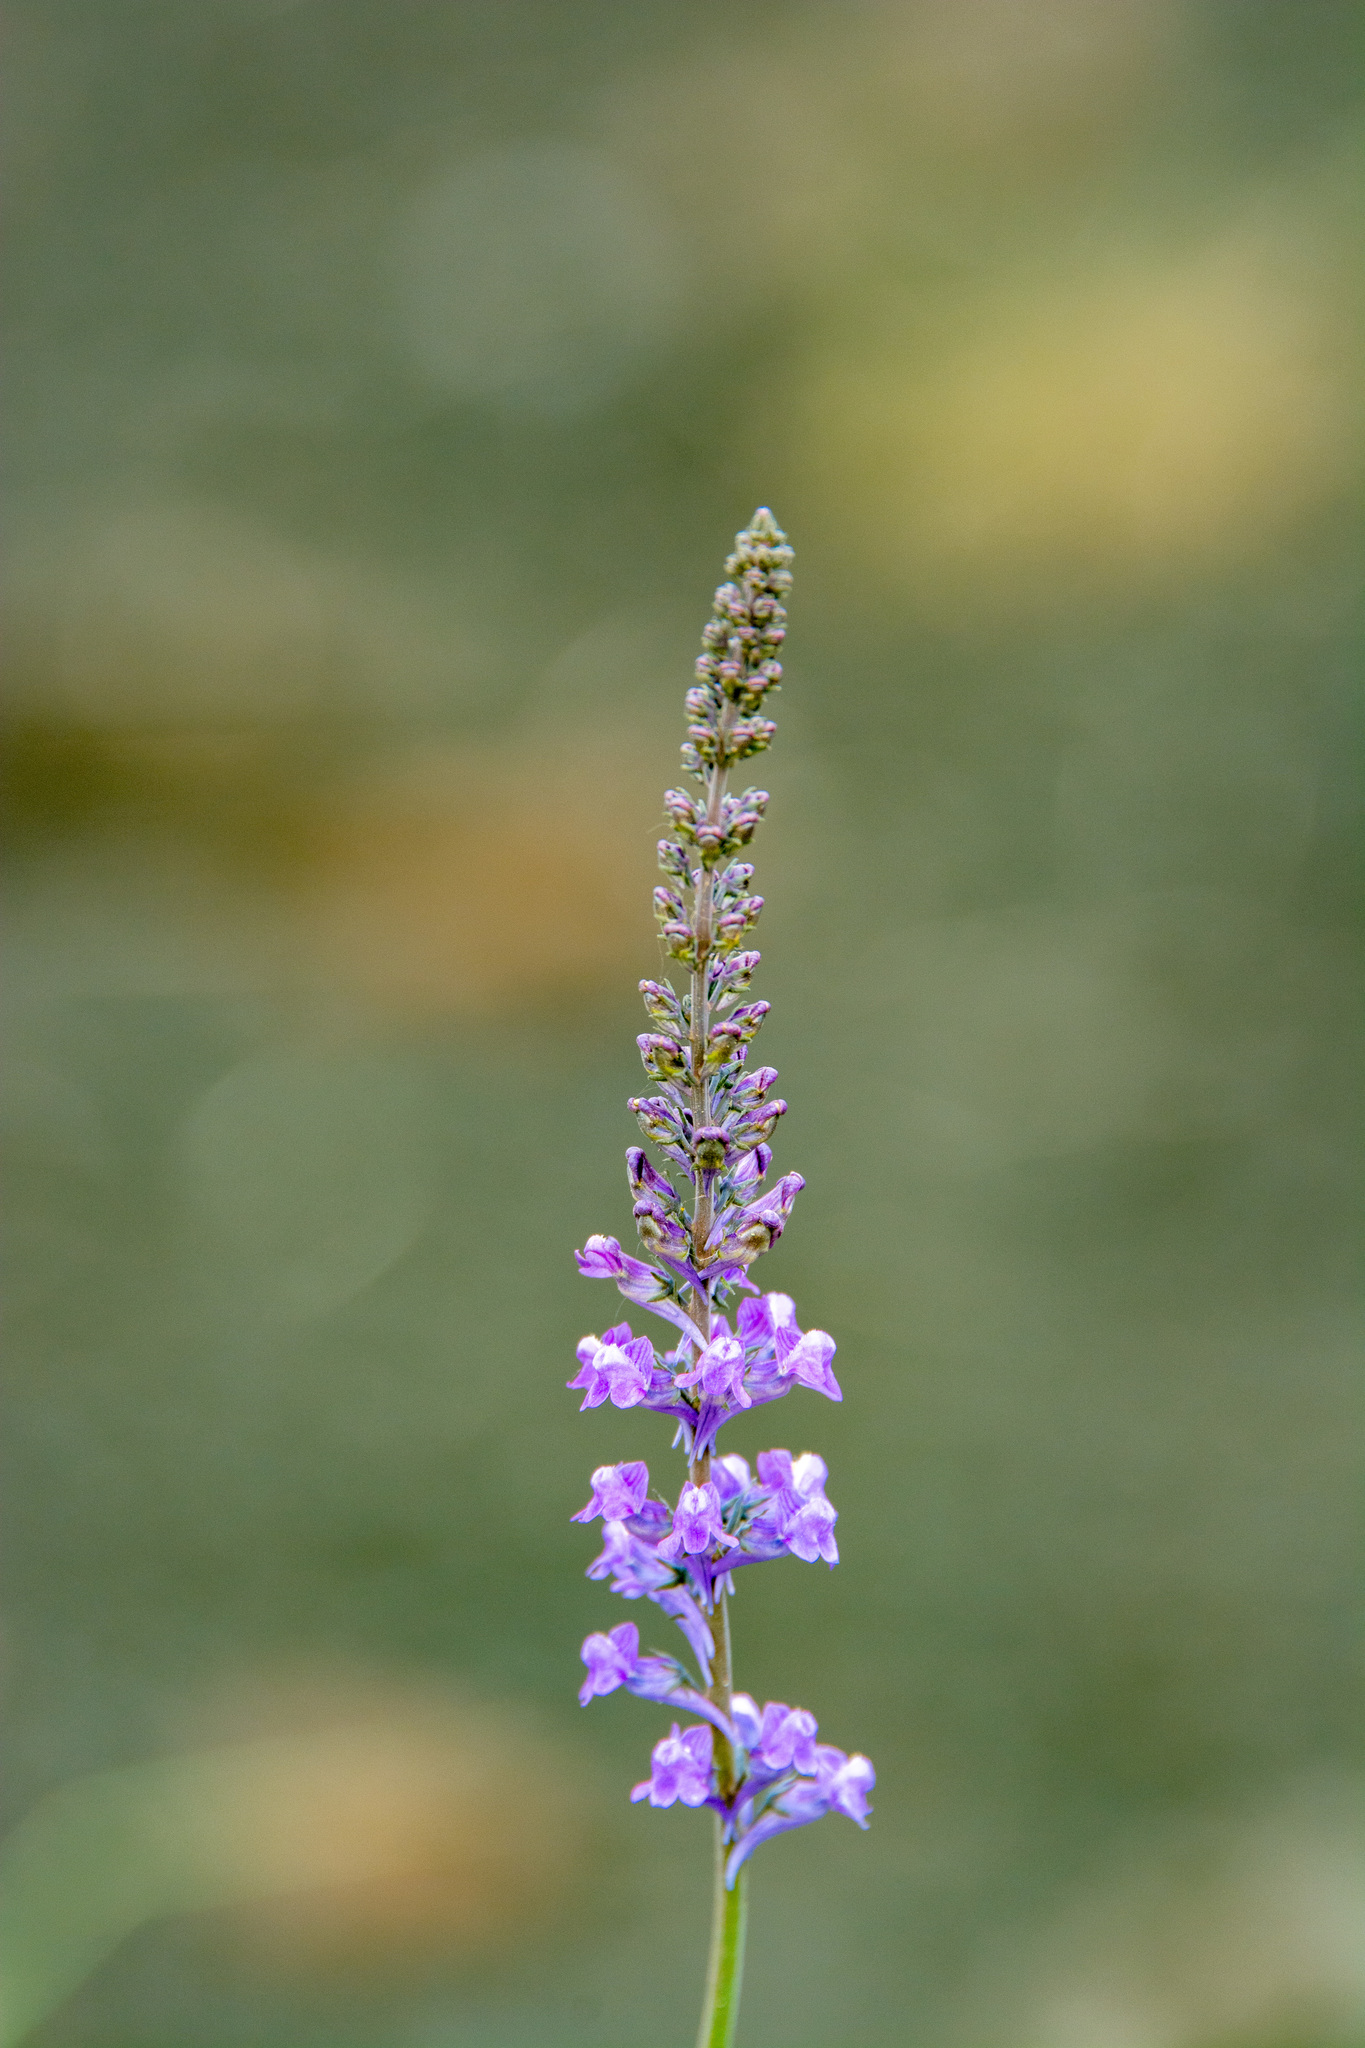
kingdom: Plantae
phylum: Tracheophyta
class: Magnoliopsida
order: Lamiales
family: Plantaginaceae
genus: Linaria
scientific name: Linaria purpurea
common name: Purple toadflax
